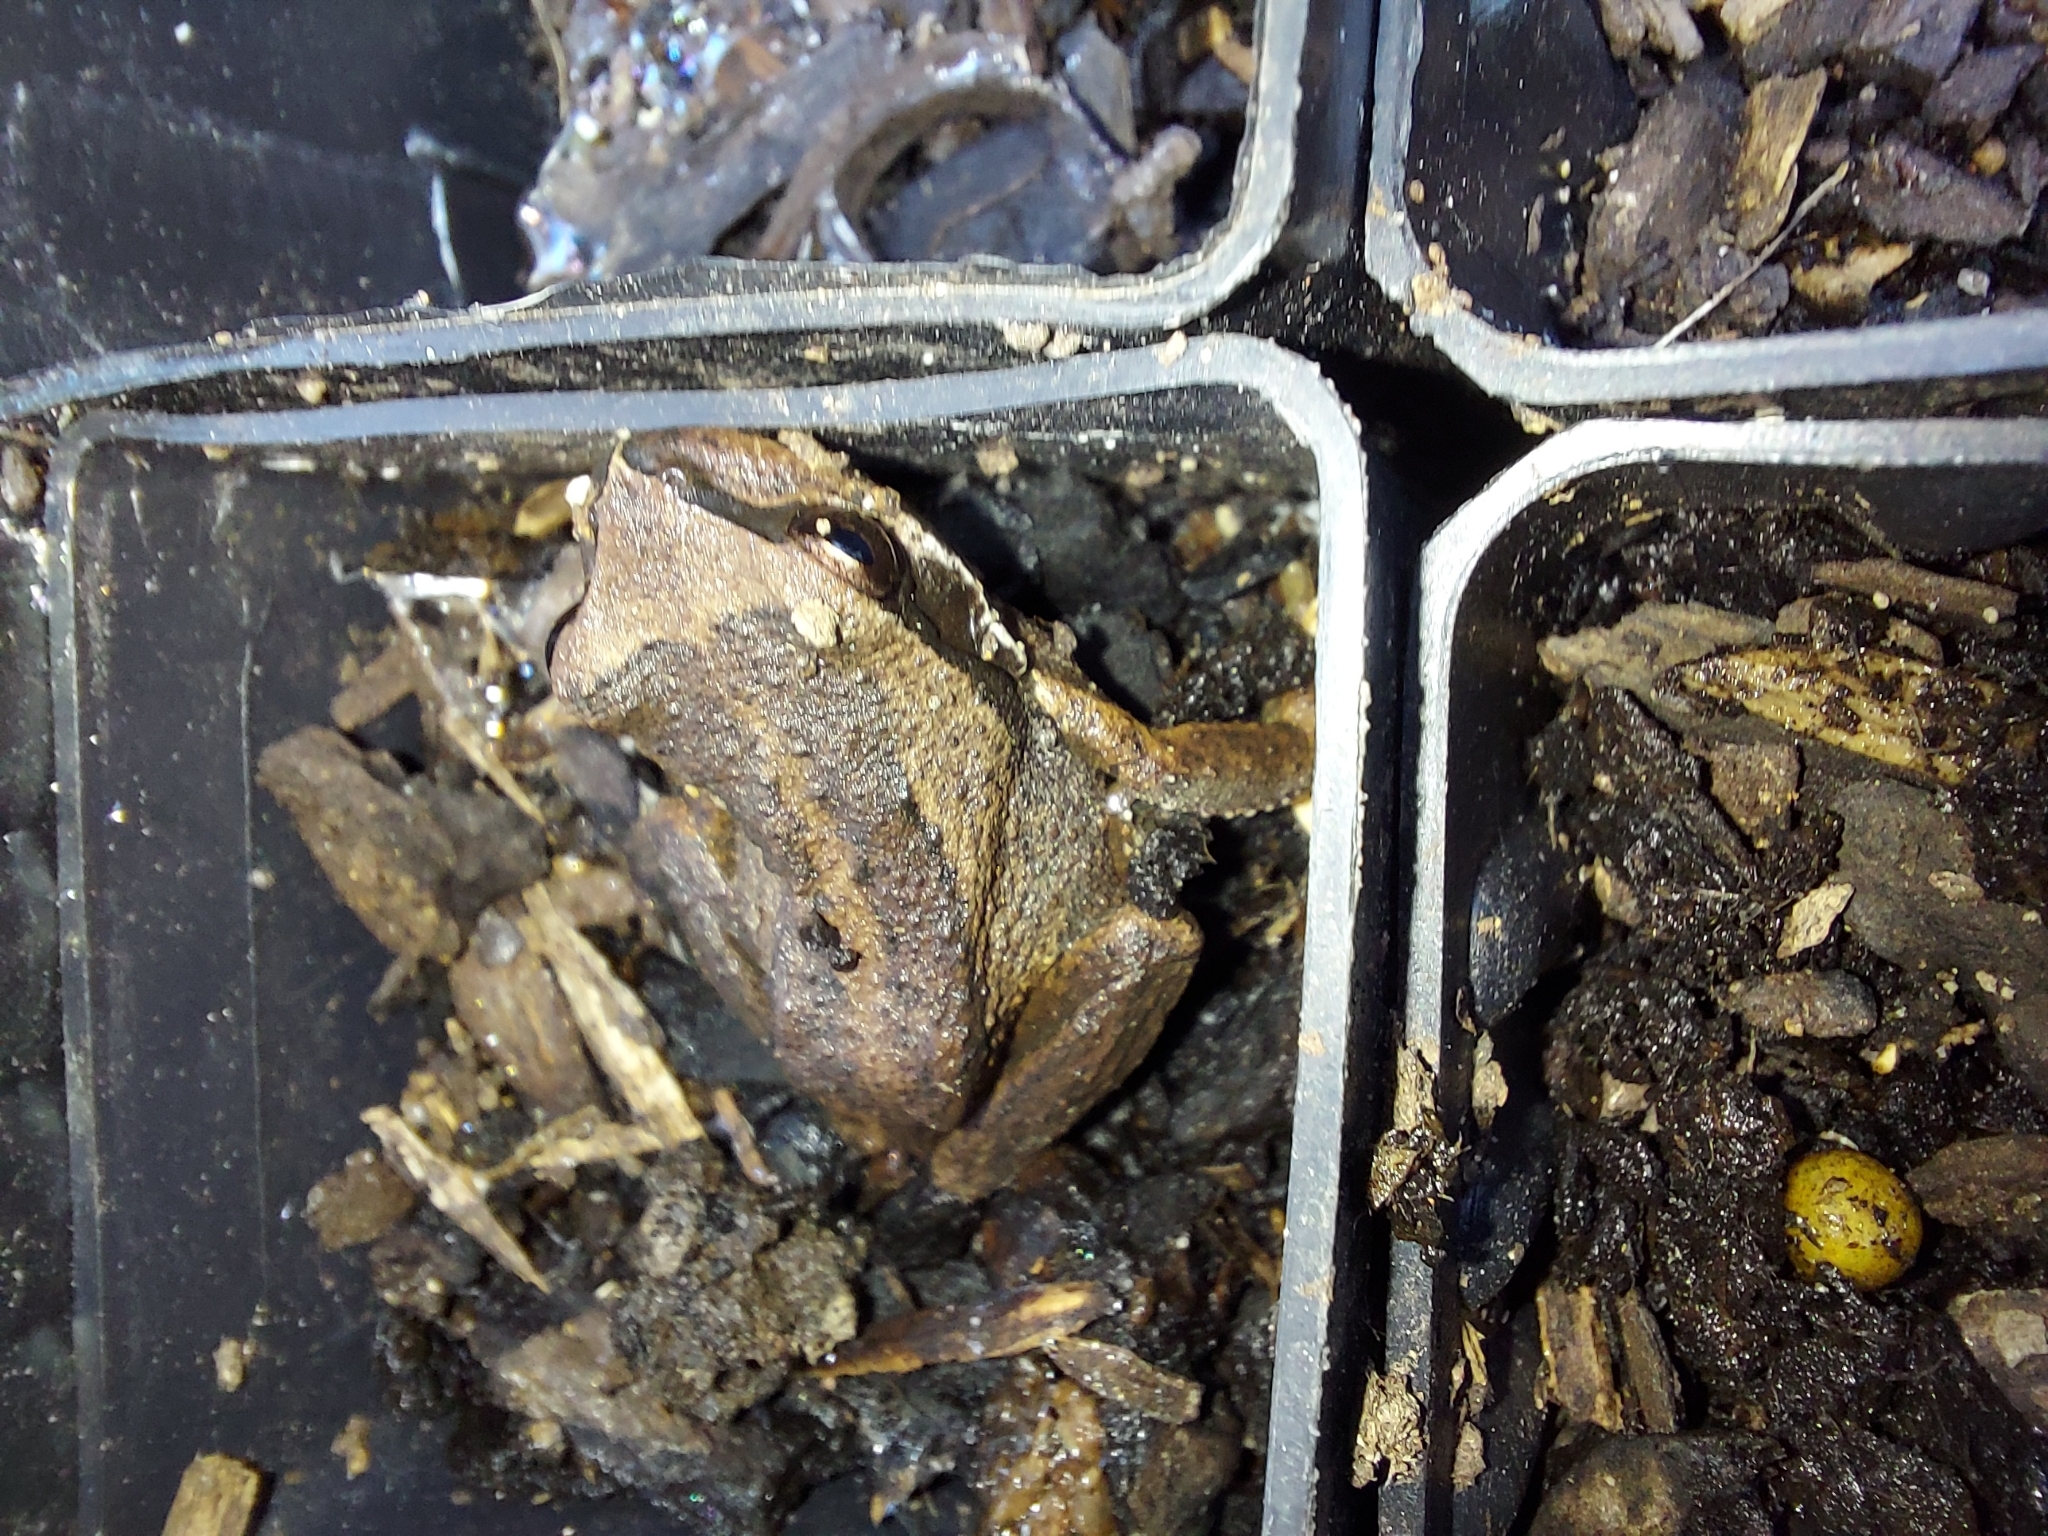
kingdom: Animalia
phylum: Chordata
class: Amphibia
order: Anura
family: Pelodryadidae
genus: Litoria
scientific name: Litoria ewingii
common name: Southern brown tree frog
